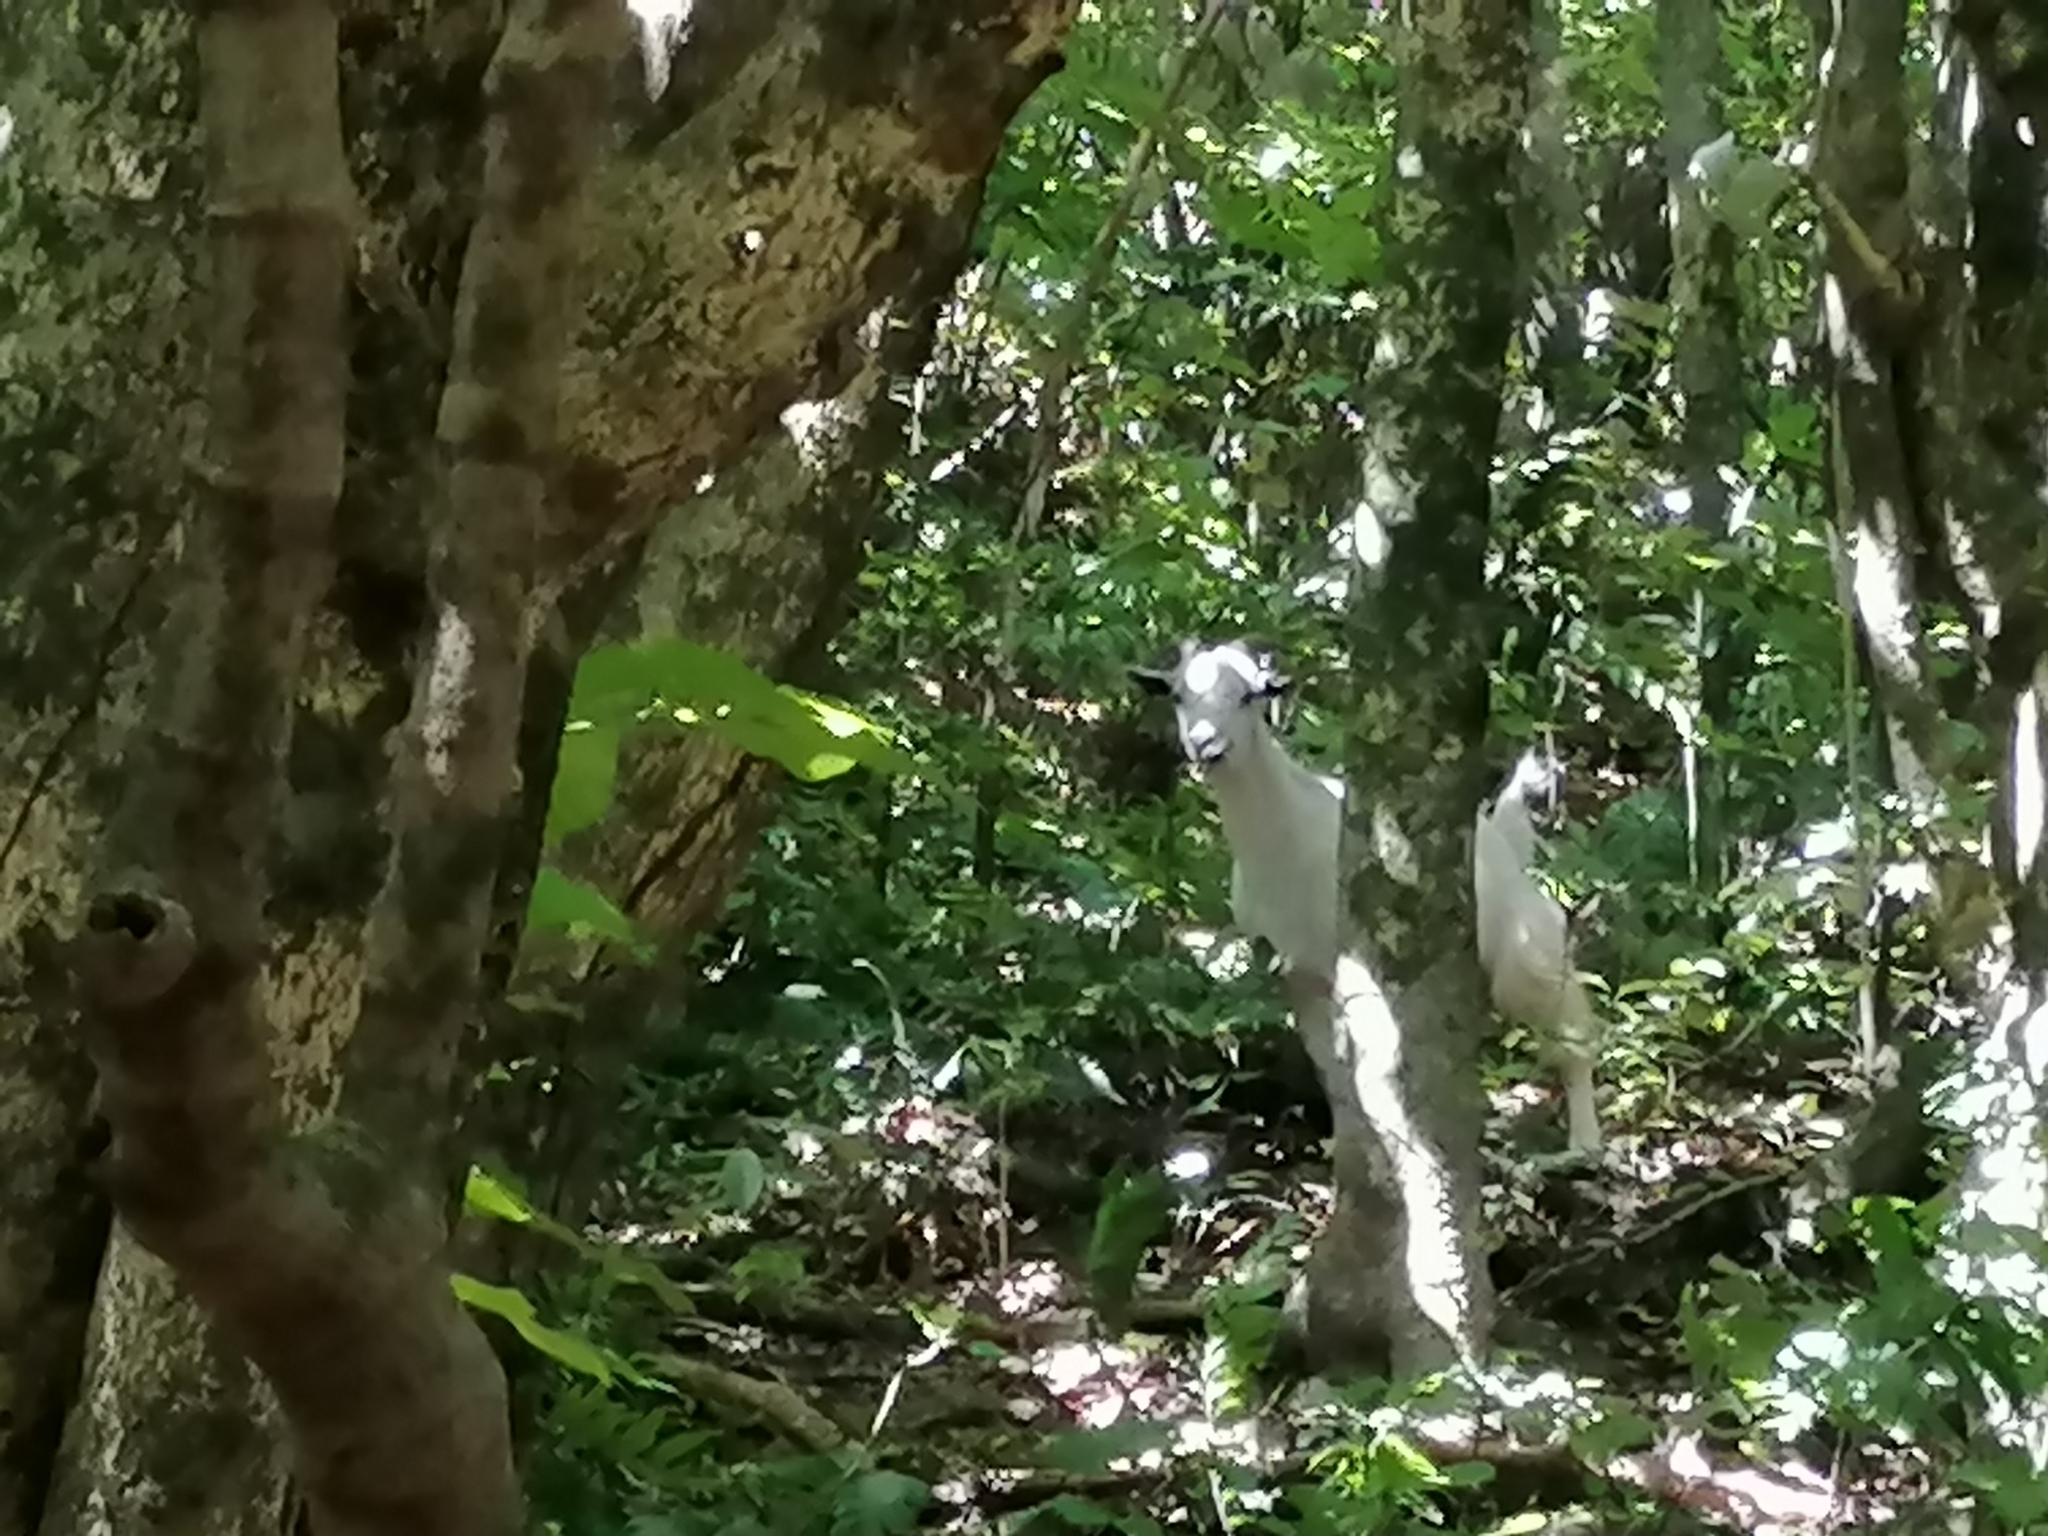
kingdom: Animalia
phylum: Chordata
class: Mammalia
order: Artiodactyla
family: Bovidae
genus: Capra
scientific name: Capra hircus
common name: Domestic goat
